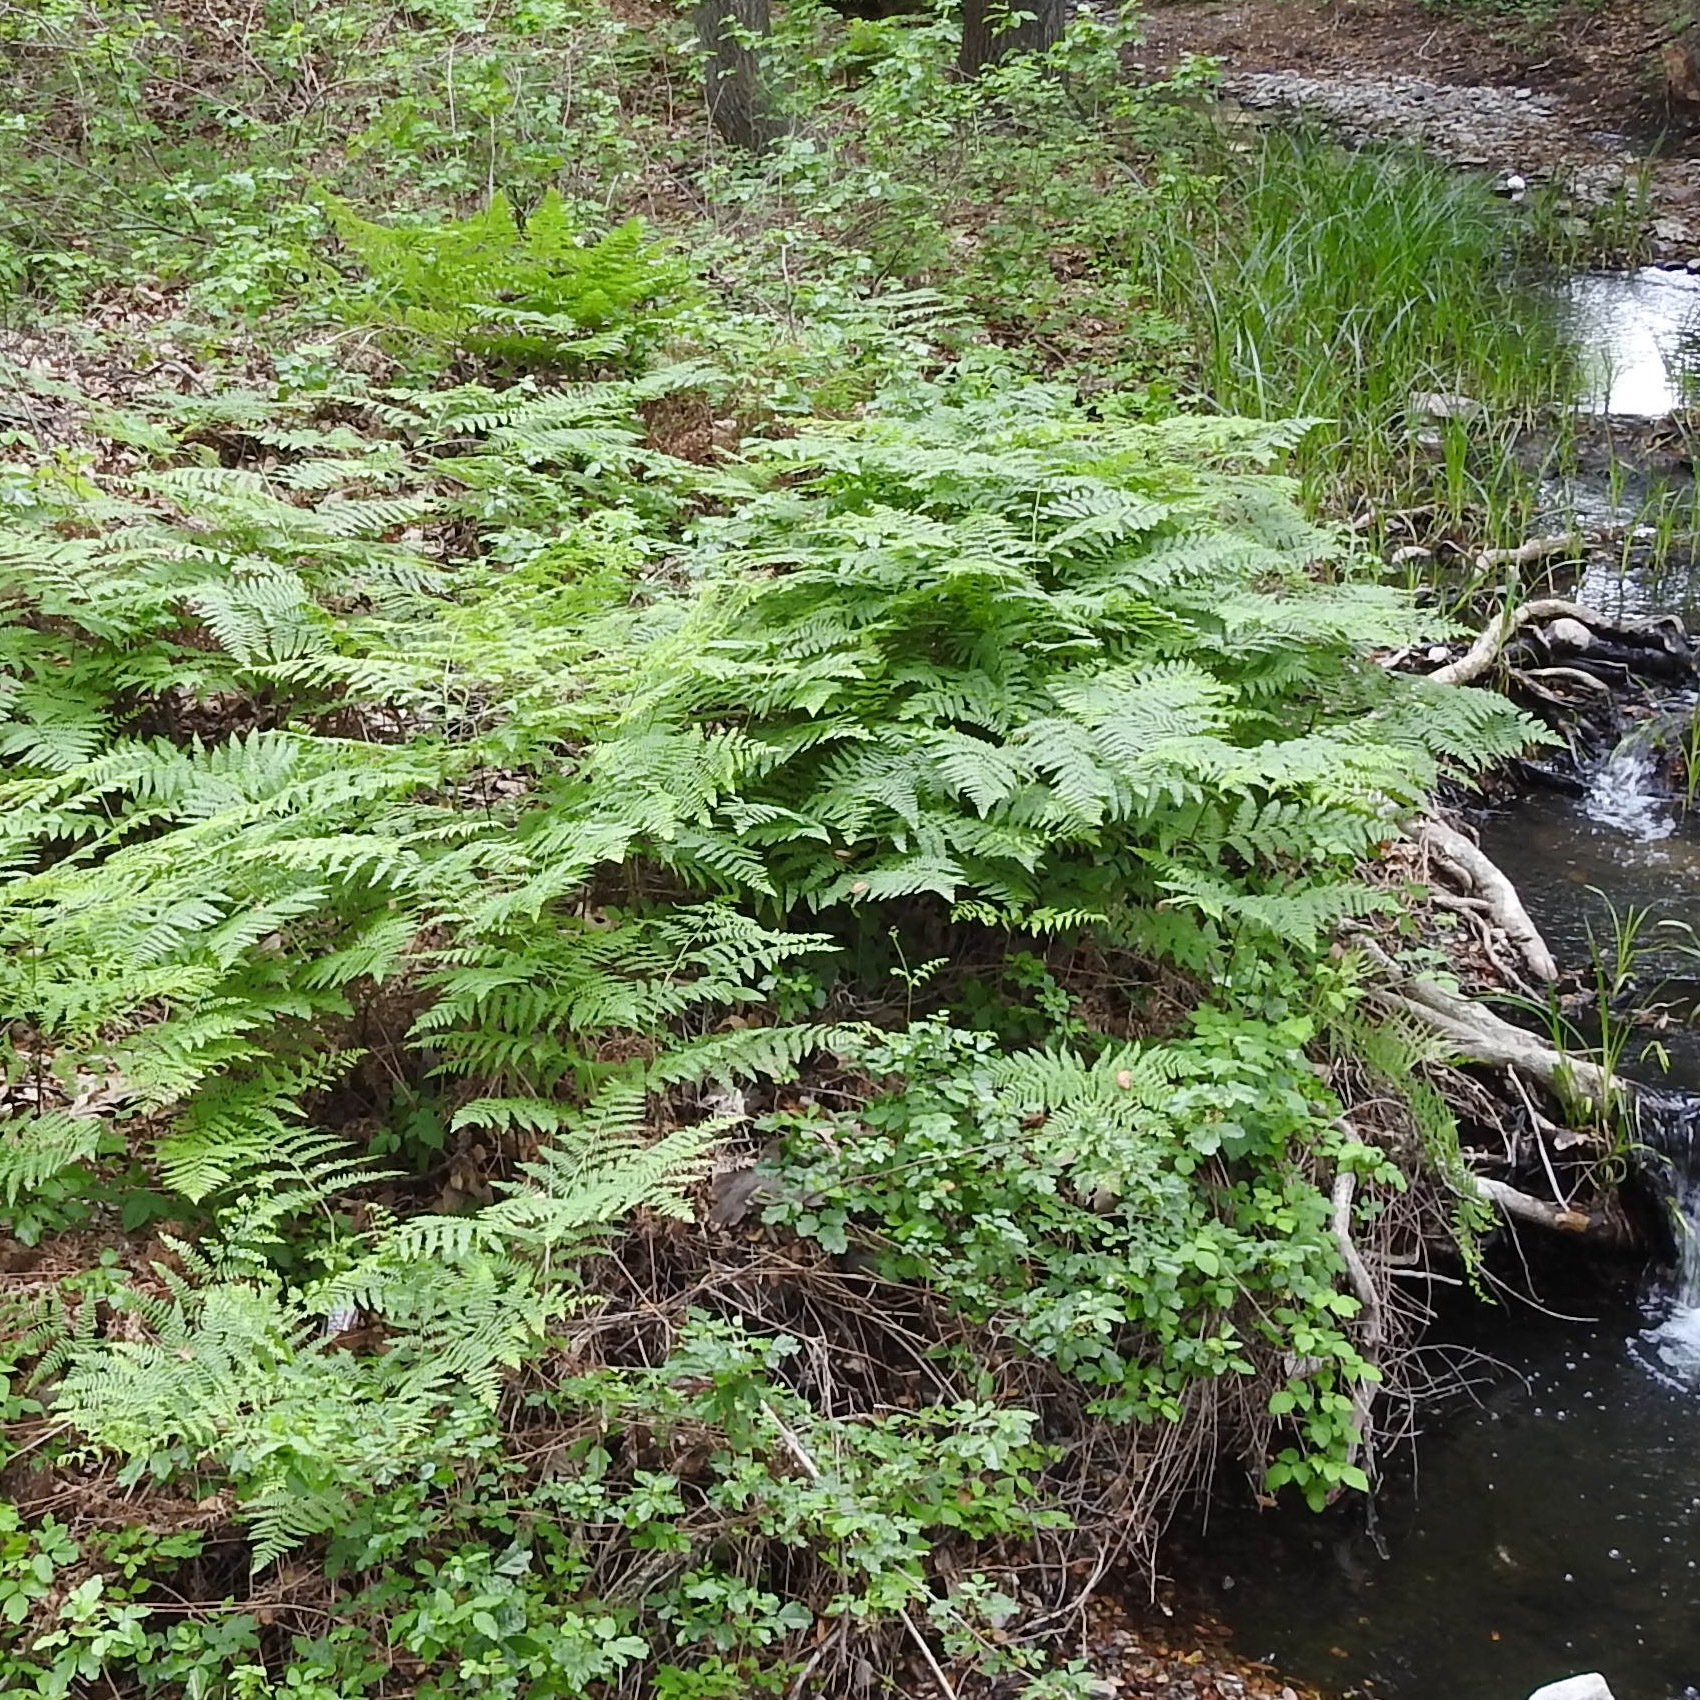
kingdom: Plantae
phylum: Tracheophyta
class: Polypodiopsida
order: Polypodiales
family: Dennstaedtiaceae
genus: Pteridium
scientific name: Pteridium aquilinum
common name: Bracken
